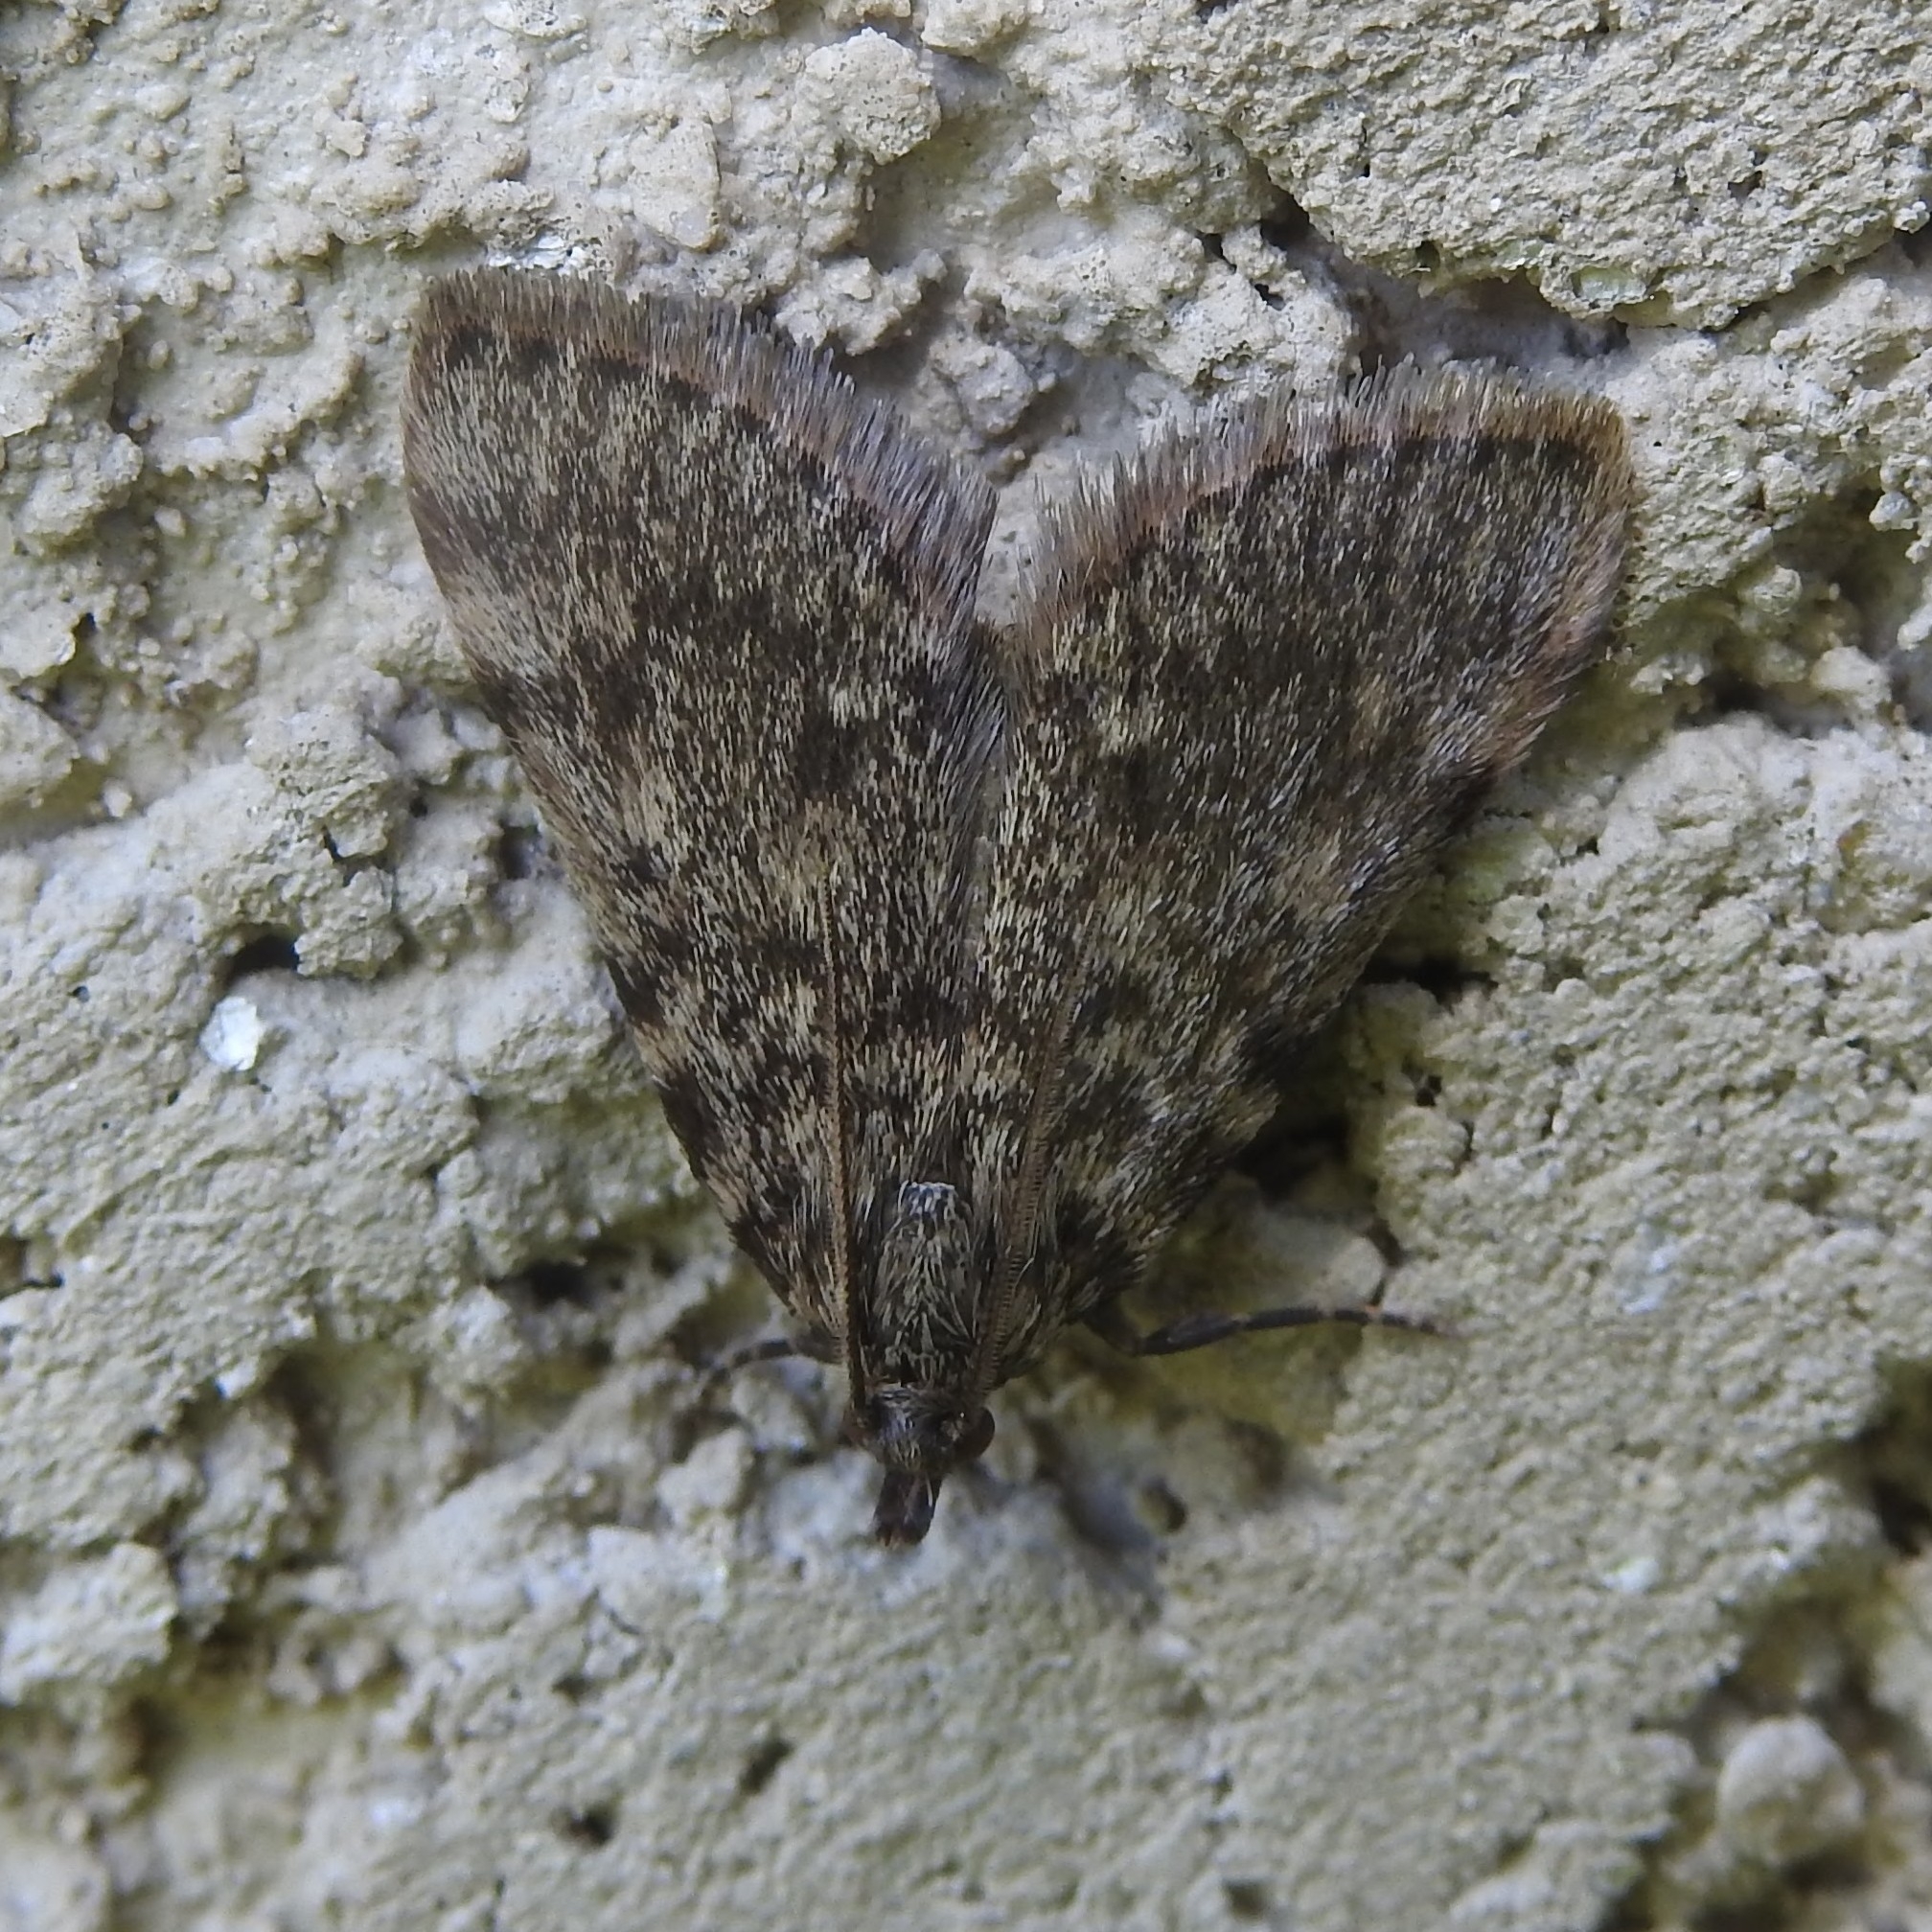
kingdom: Animalia
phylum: Arthropoda
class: Insecta
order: Lepidoptera
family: Pyralidae
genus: Aglossa
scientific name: Aglossa pinguinalis
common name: Large tabby
